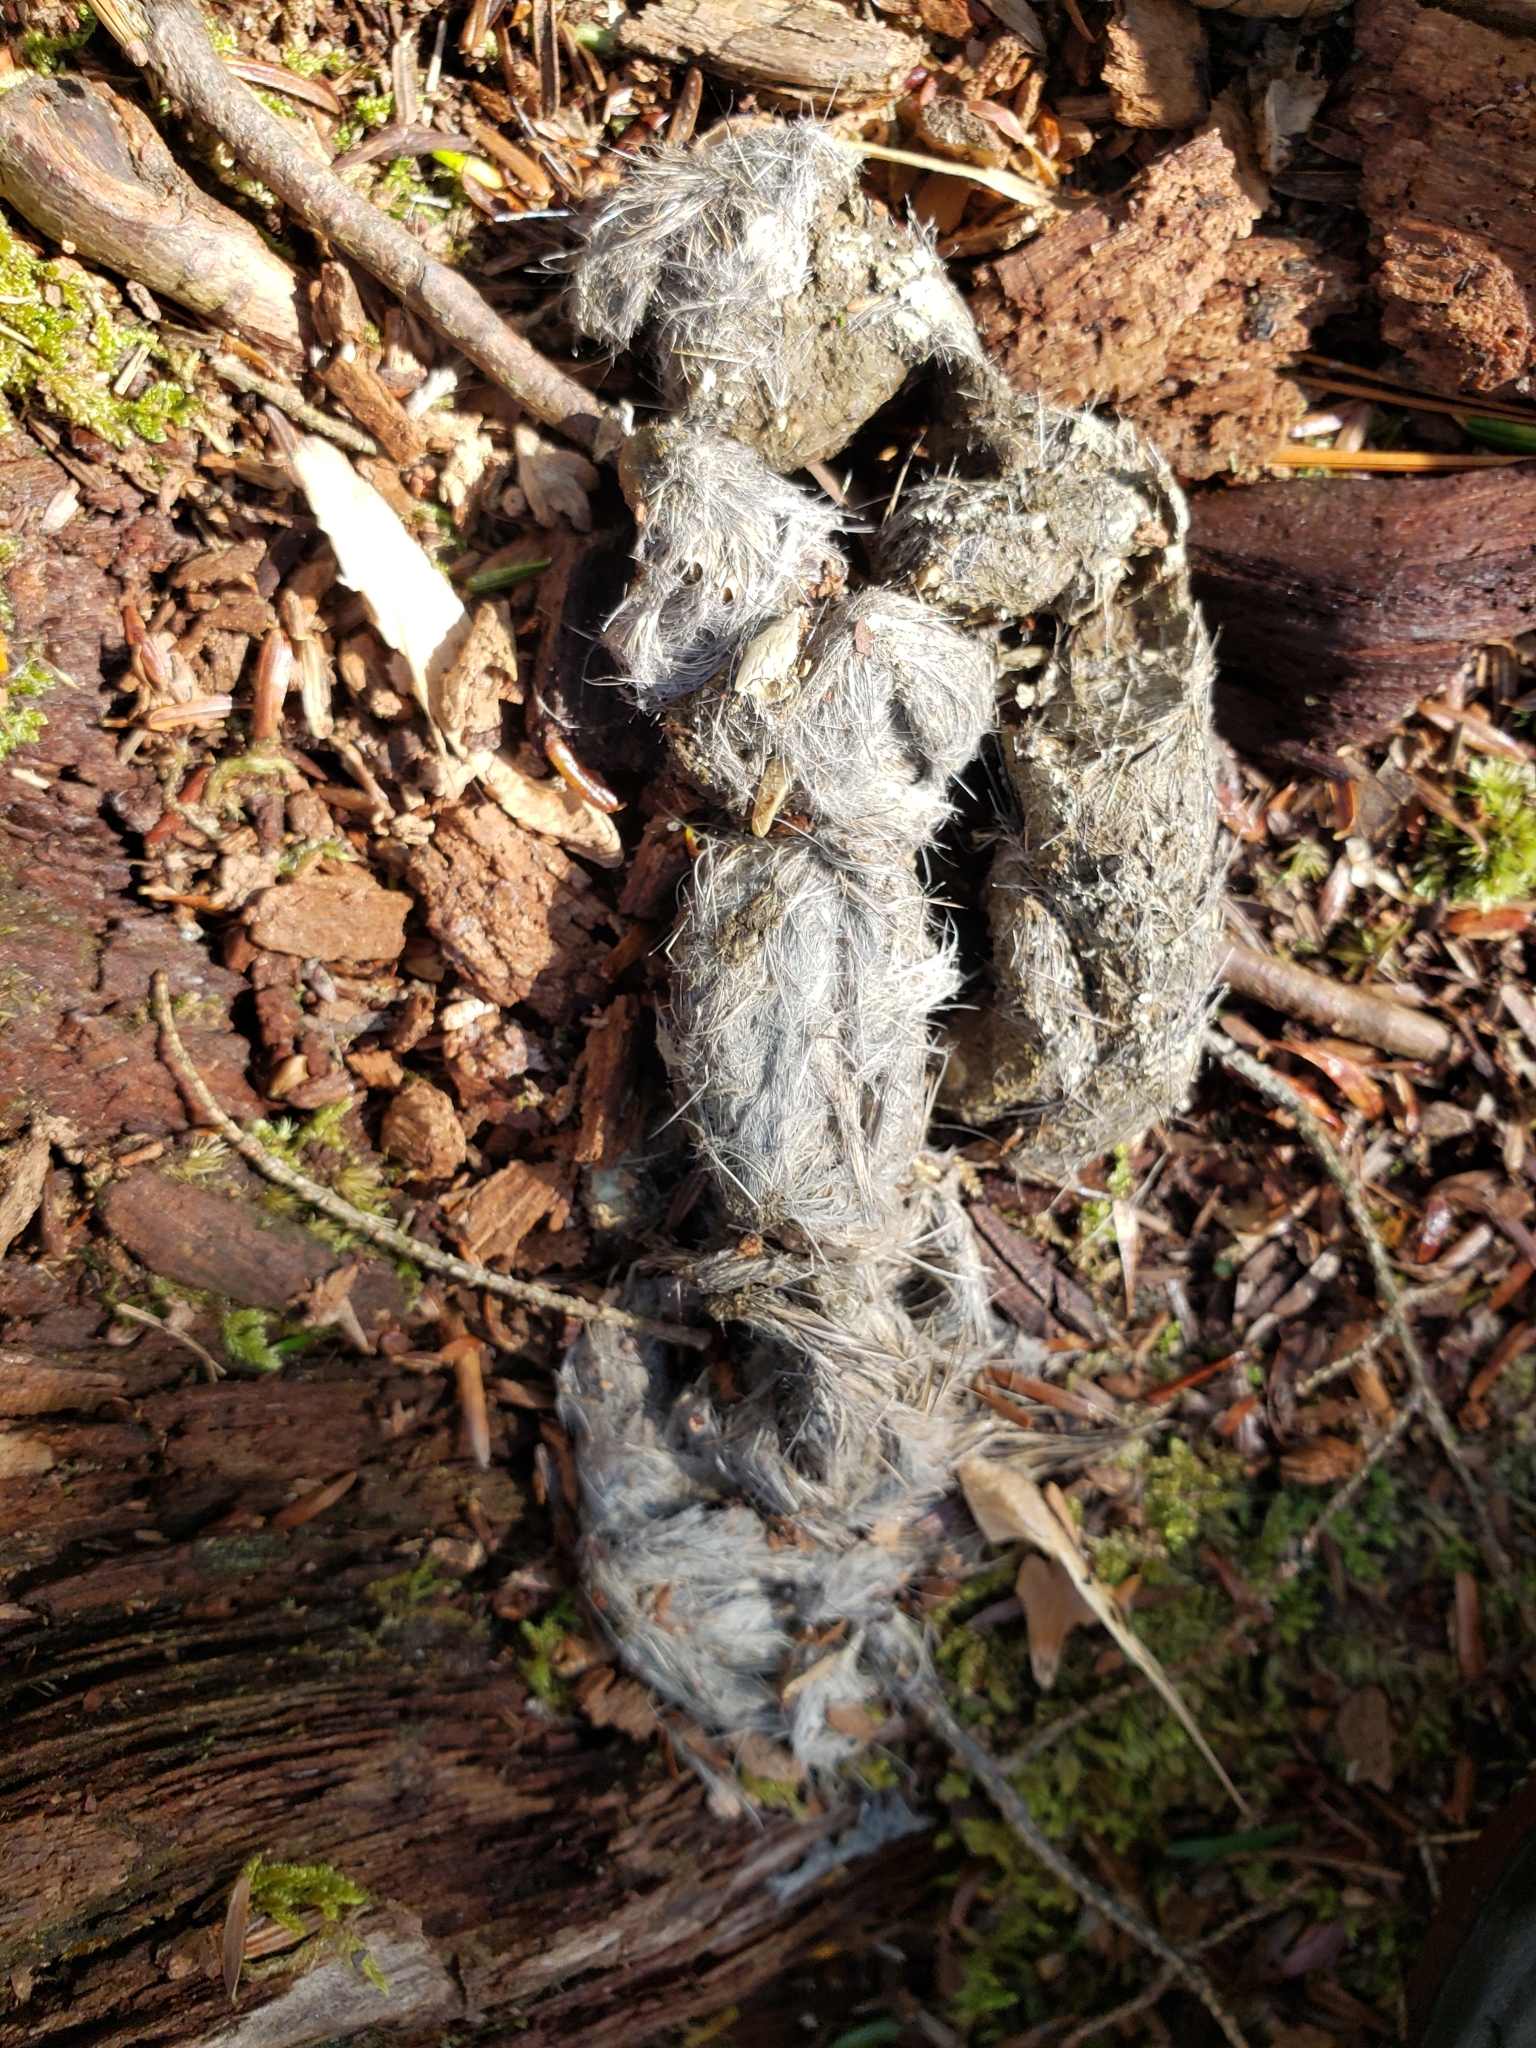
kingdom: Animalia
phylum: Chordata
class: Mammalia
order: Carnivora
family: Canidae
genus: Canis
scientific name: Canis latrans
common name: Coyote
